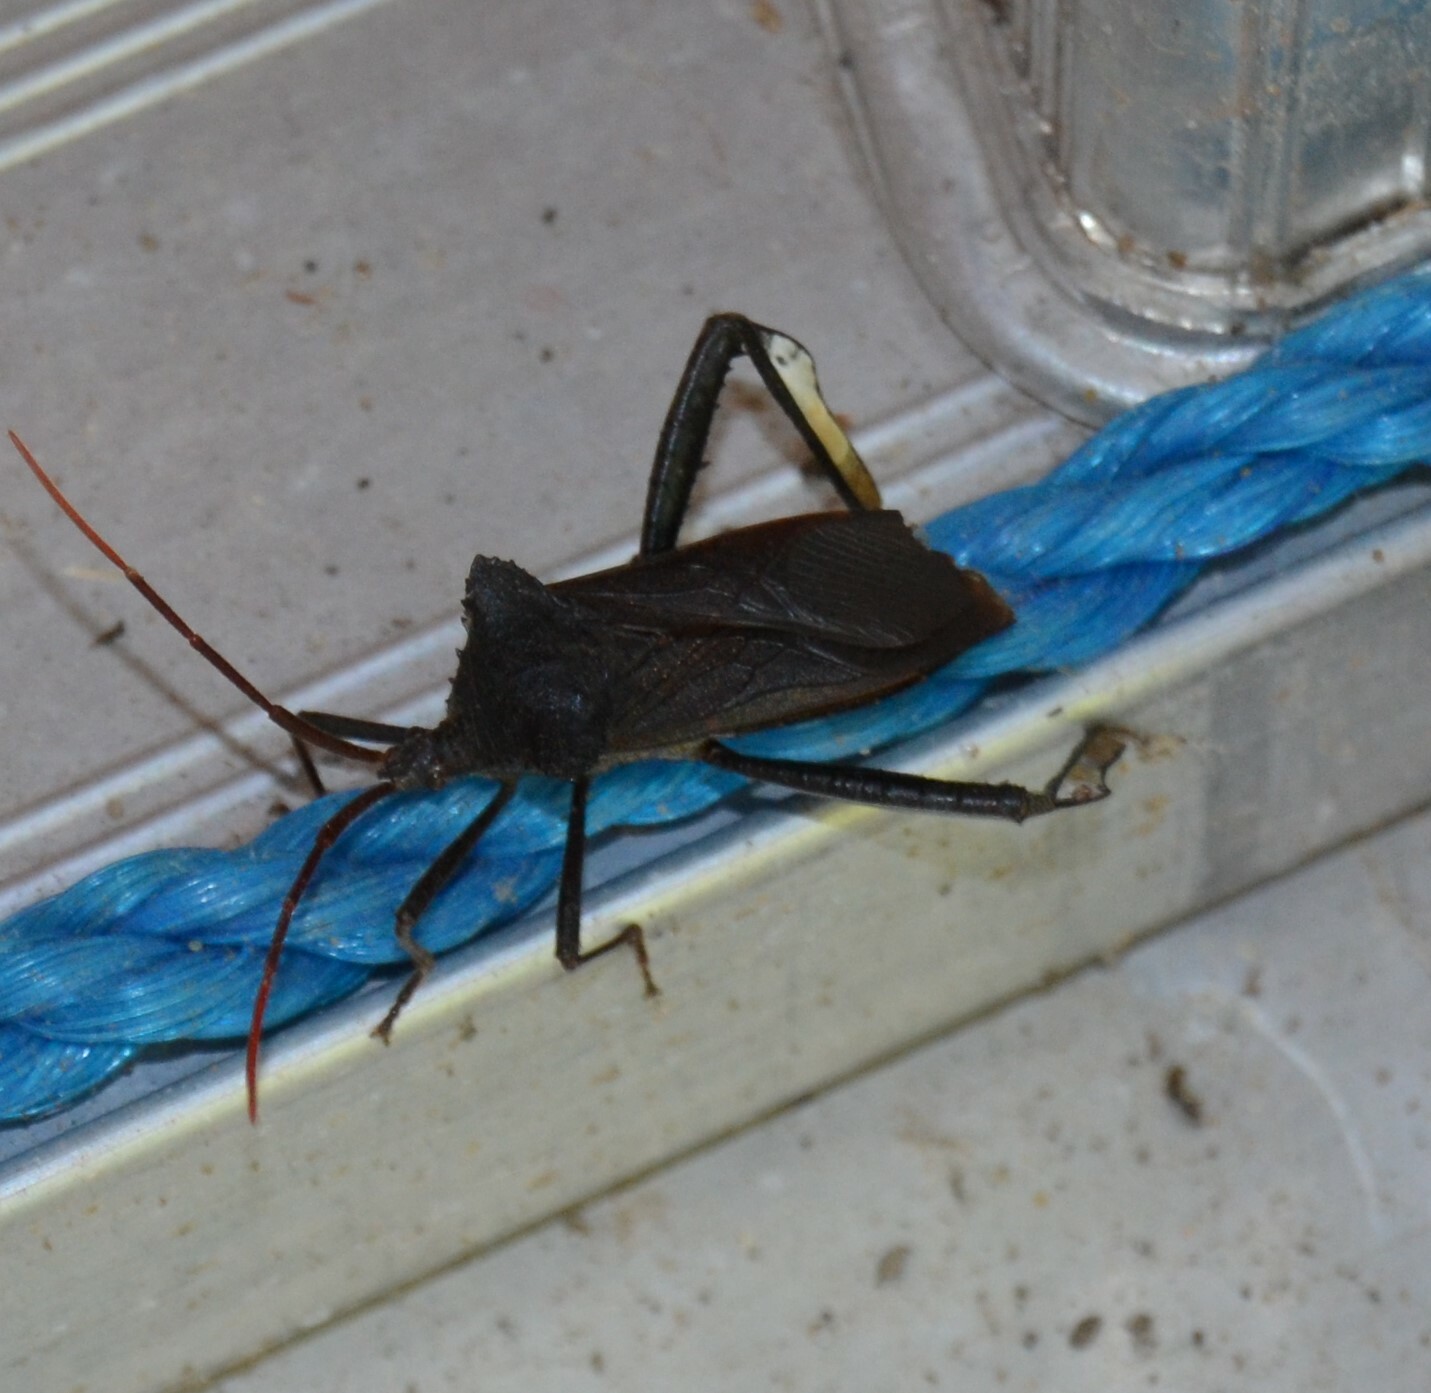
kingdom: Animalia
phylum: Arthropoda
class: Insecta
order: Hemiptera
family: Coreidae
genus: Acanthocephala
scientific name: Acanthocephala declivis
